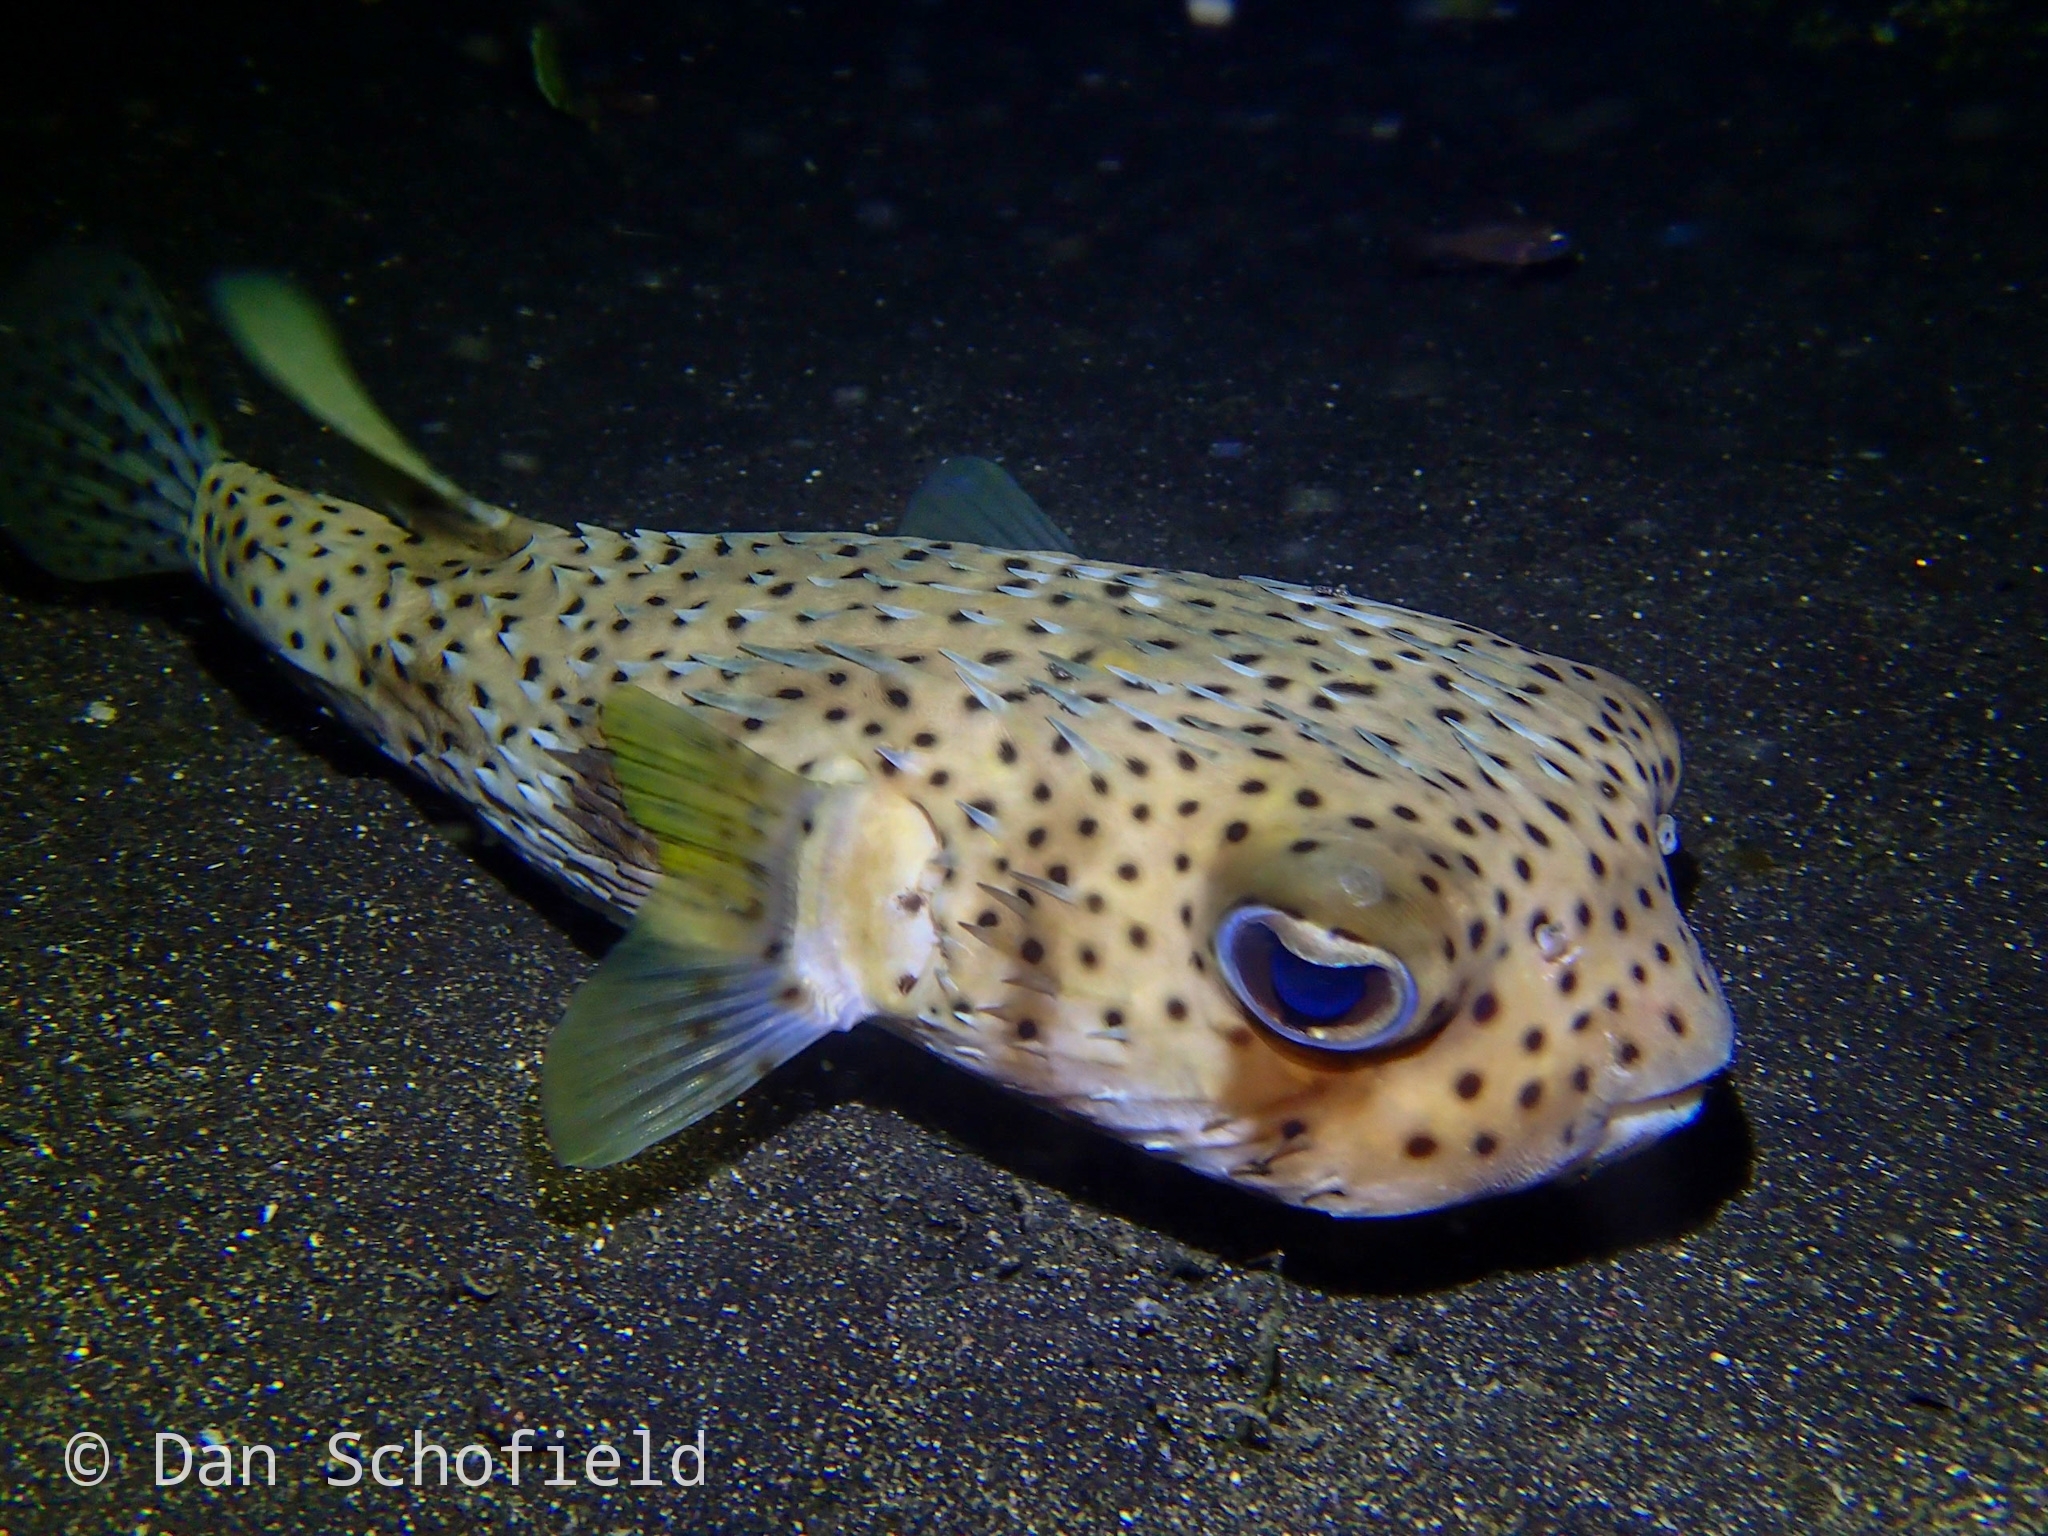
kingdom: Animalia
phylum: Chordata
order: Tetraodontiformes
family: Diodontidae
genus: Diodon
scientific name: Diodon hystrix
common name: Giant porcupinefish
